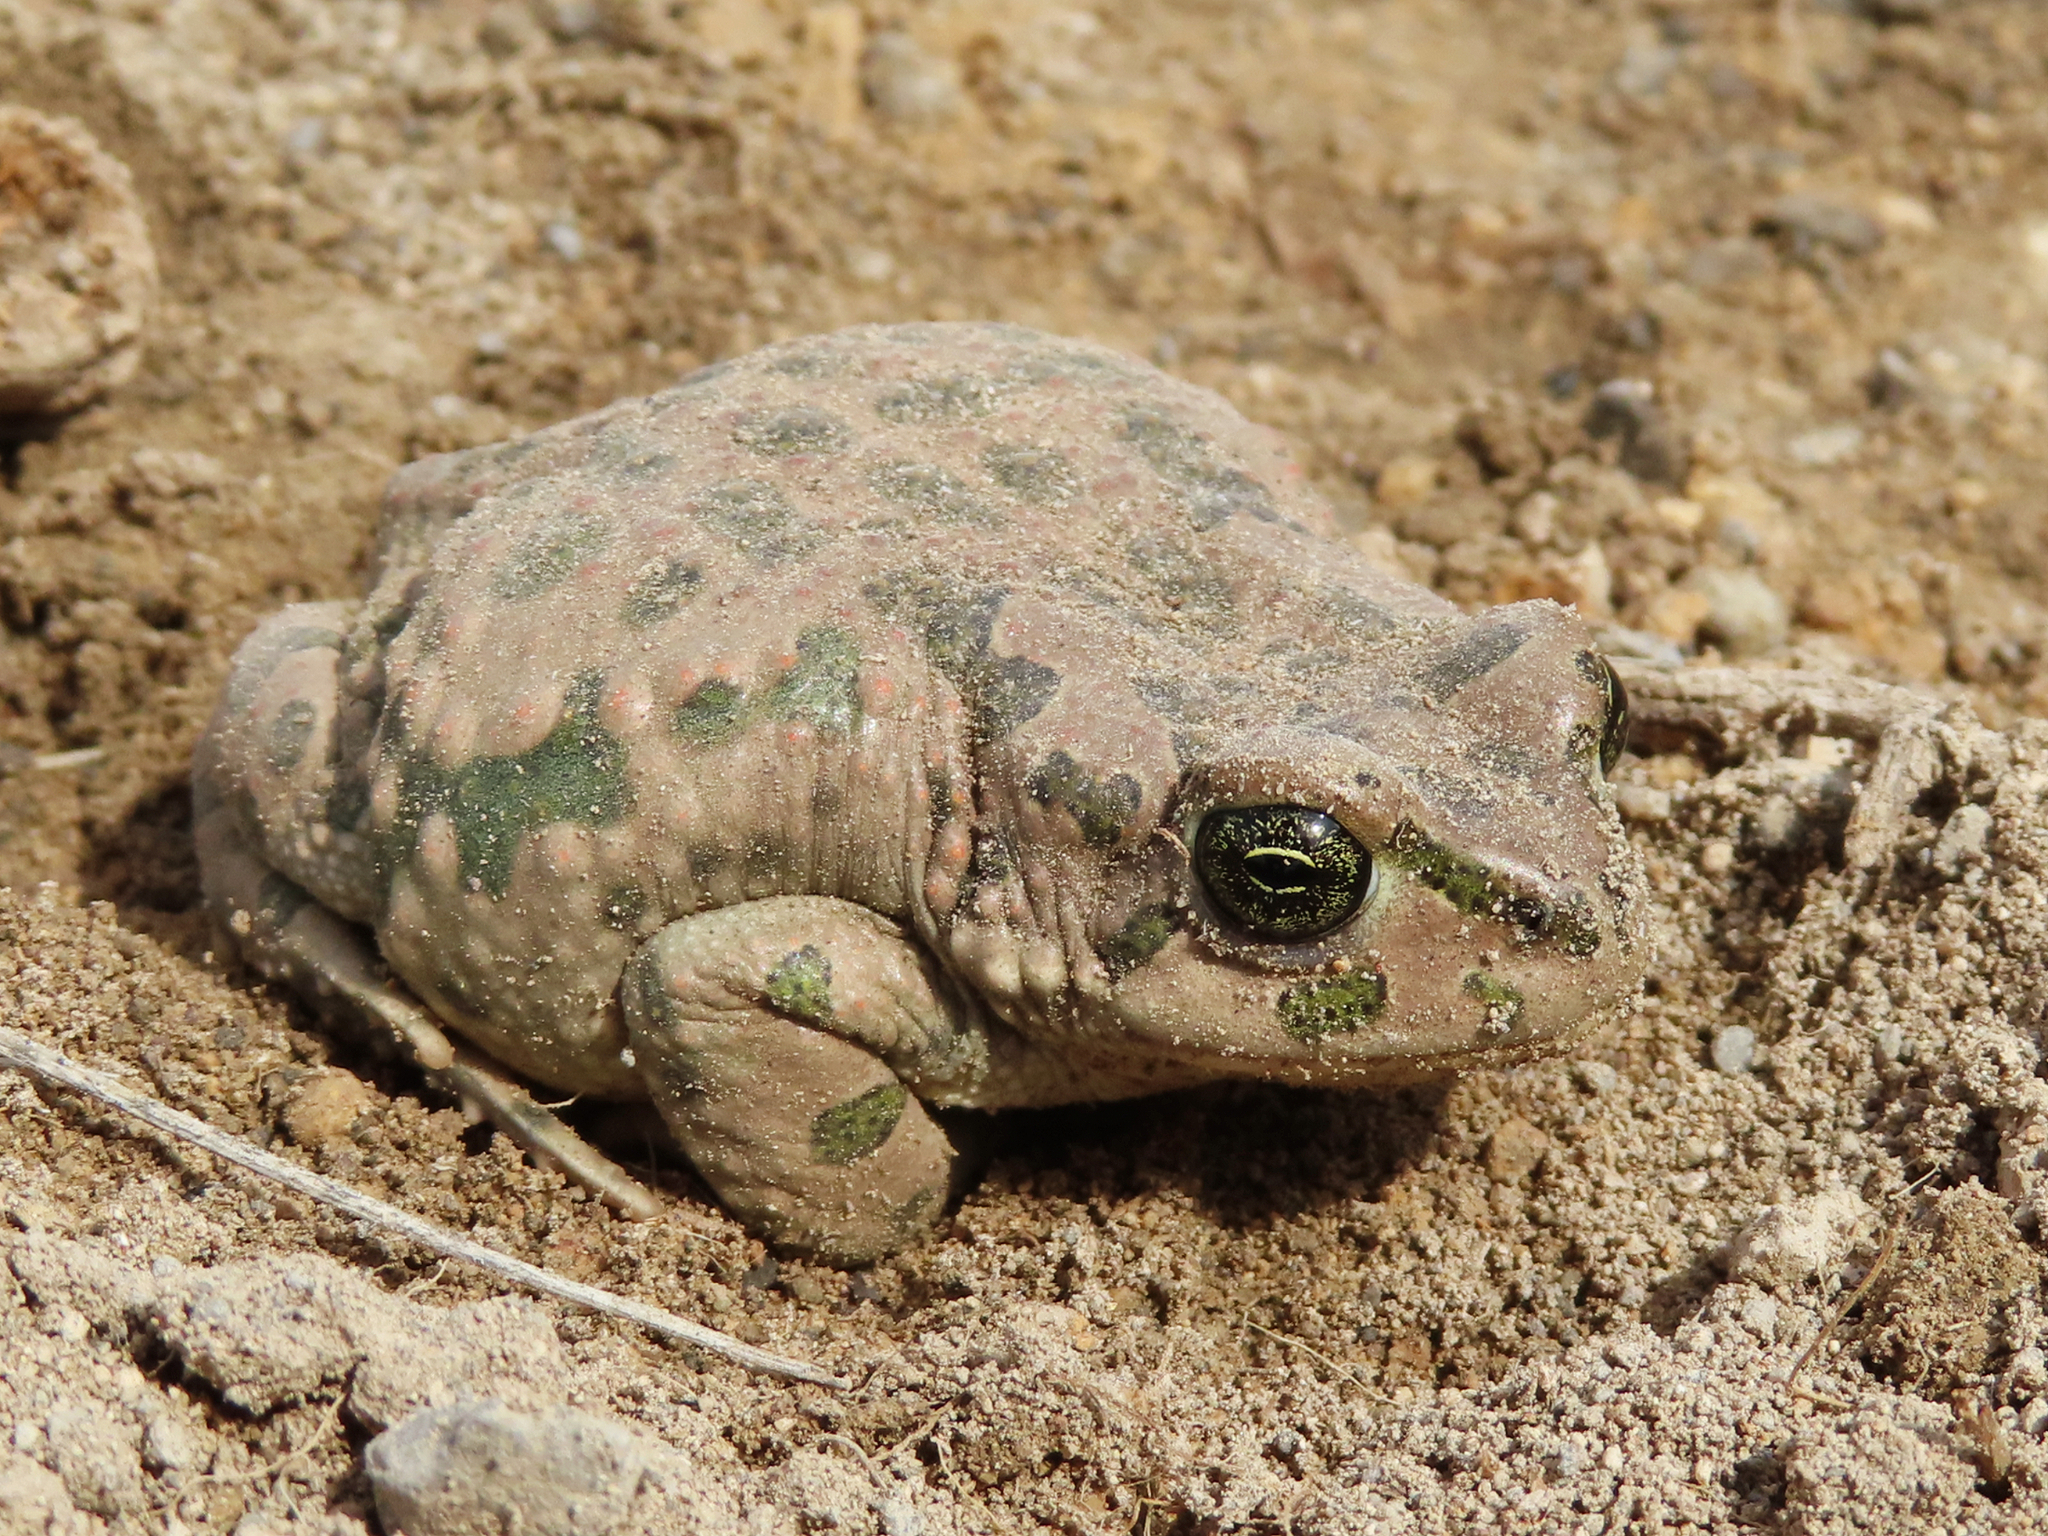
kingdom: Animalia
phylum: Chordata
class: Amphibia
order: Anura
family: Bufonidae
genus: Bufotes
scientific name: Bufotes viridis
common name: European green toad
